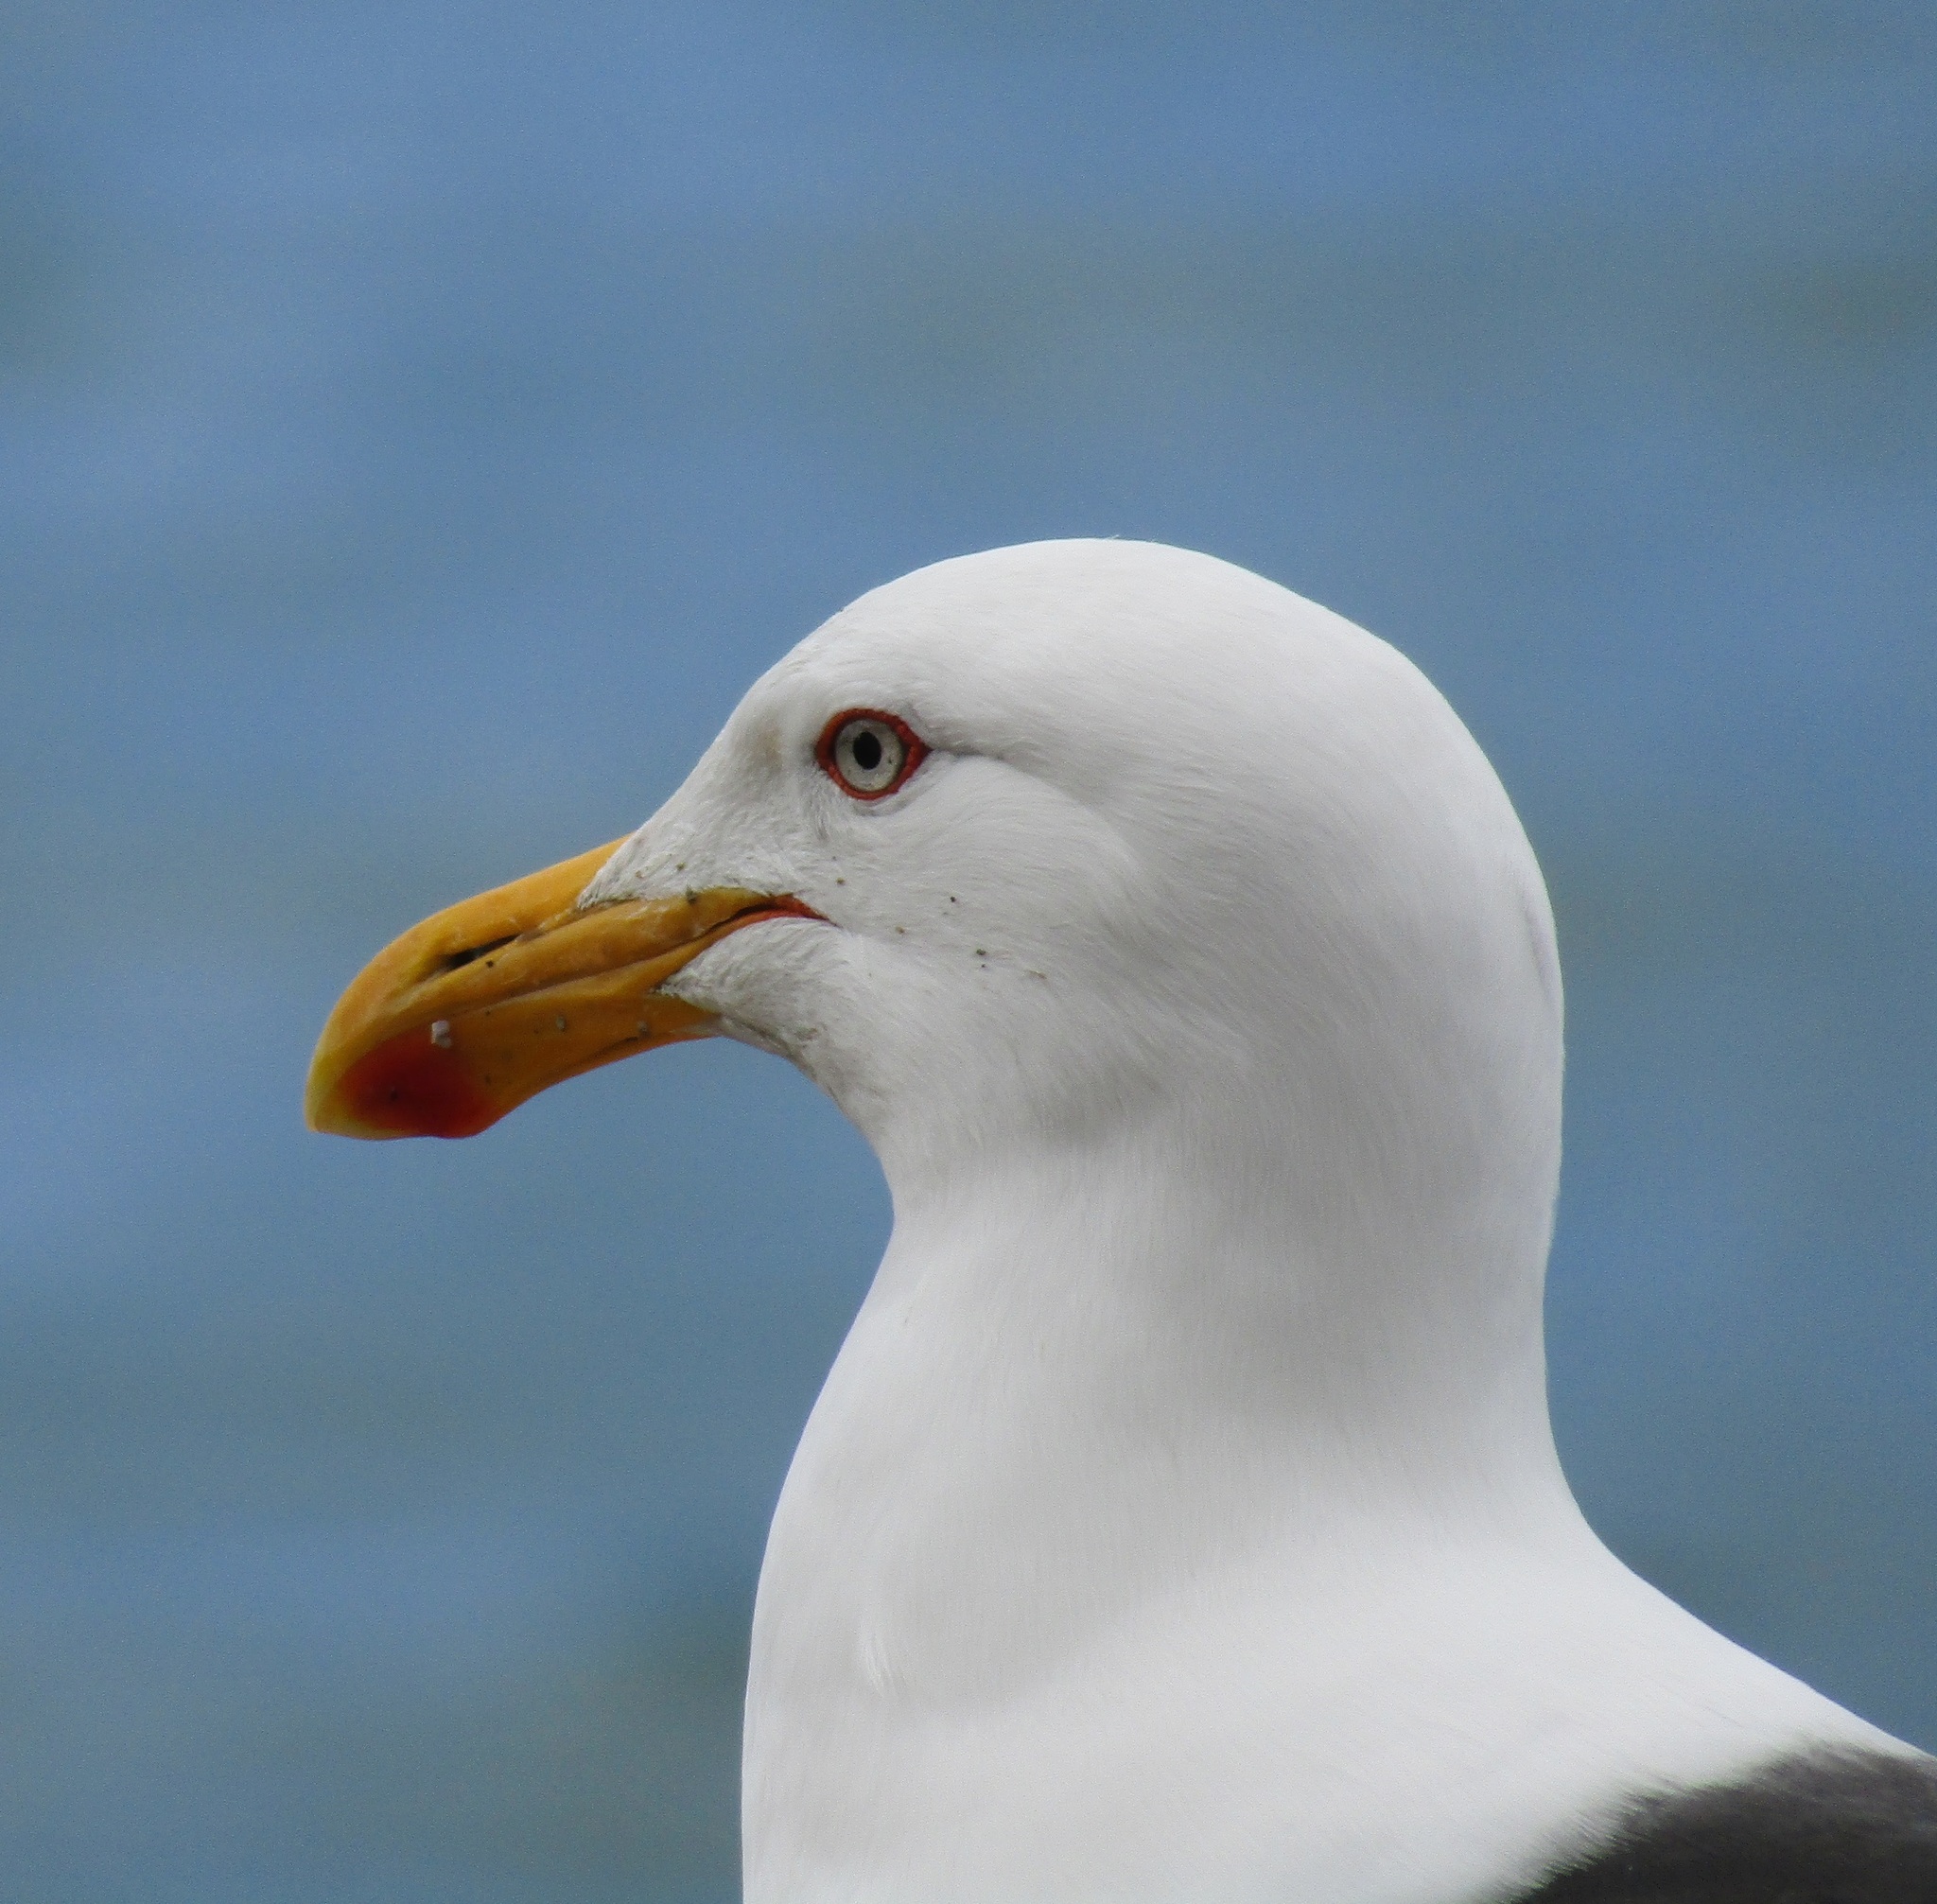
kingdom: Animalia
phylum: Chordata
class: Aves
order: Charadriiformes
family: Laridae
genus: Larus
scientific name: Larus dominicanus
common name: Kelp gull
